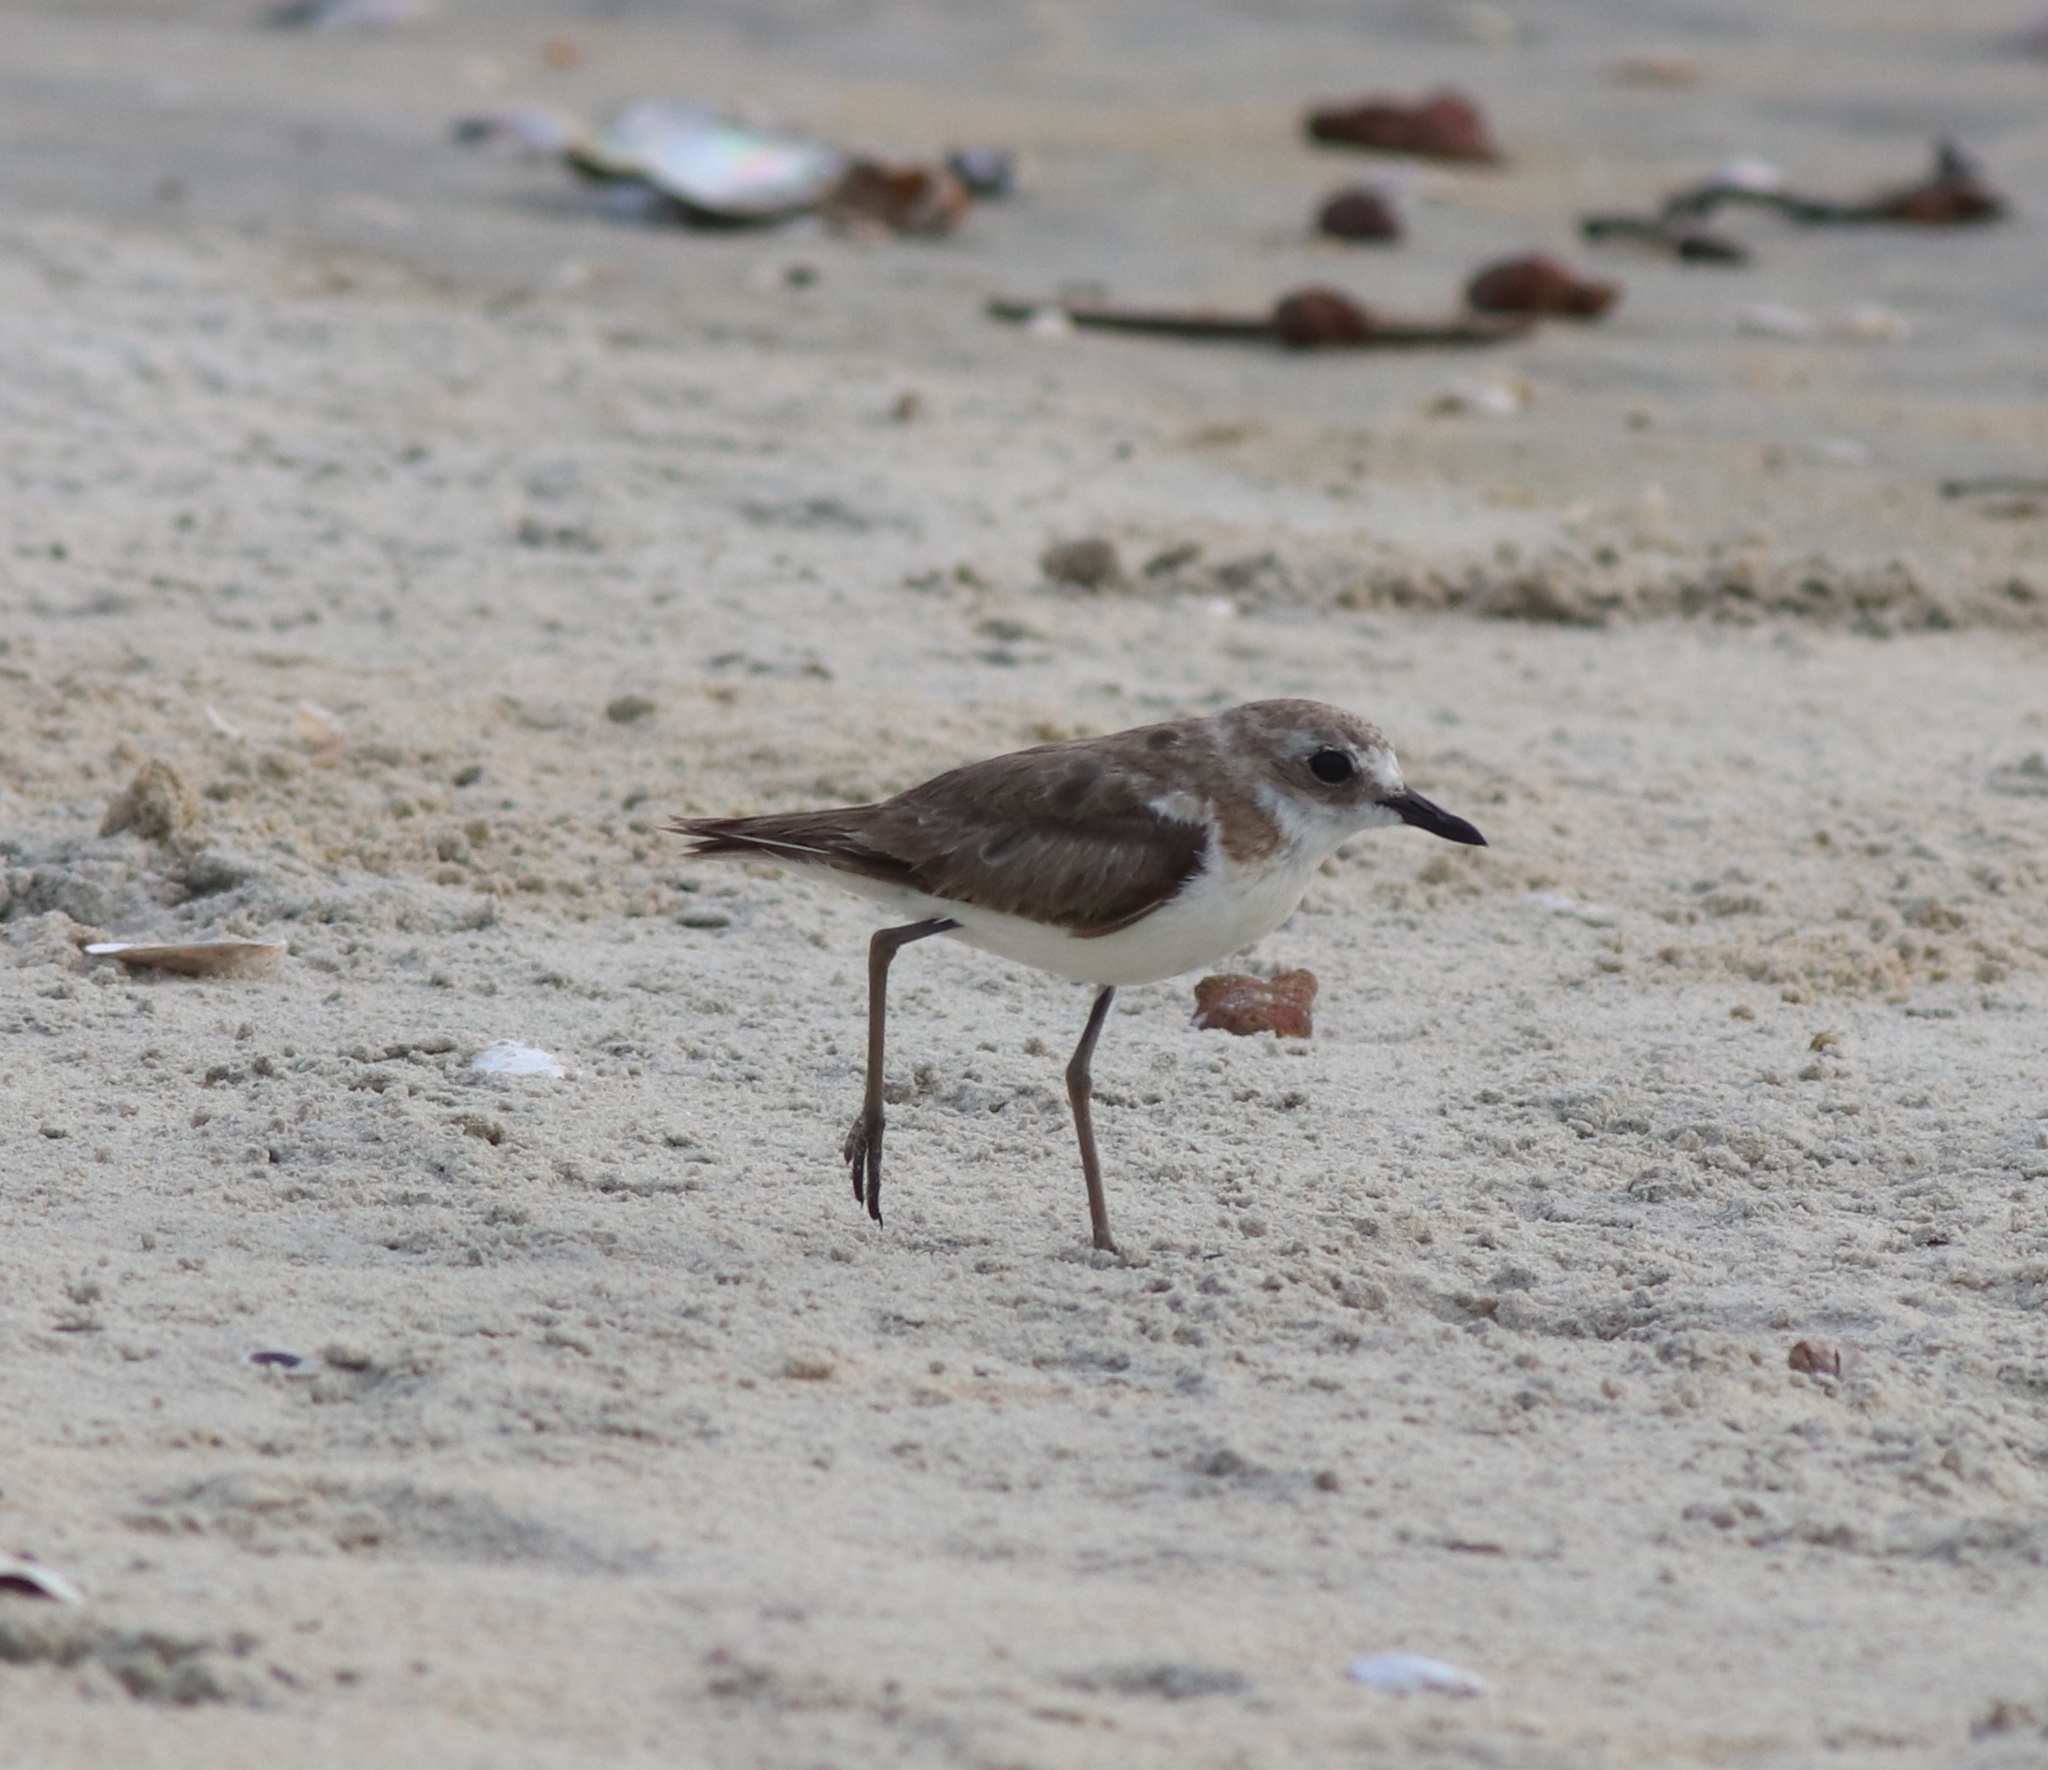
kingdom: Animalia
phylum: Chordata
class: Aves
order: Charadriiformes
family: Charadriidae
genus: Charadrius
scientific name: Charadrius leschenaultii
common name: Greater sand plover
